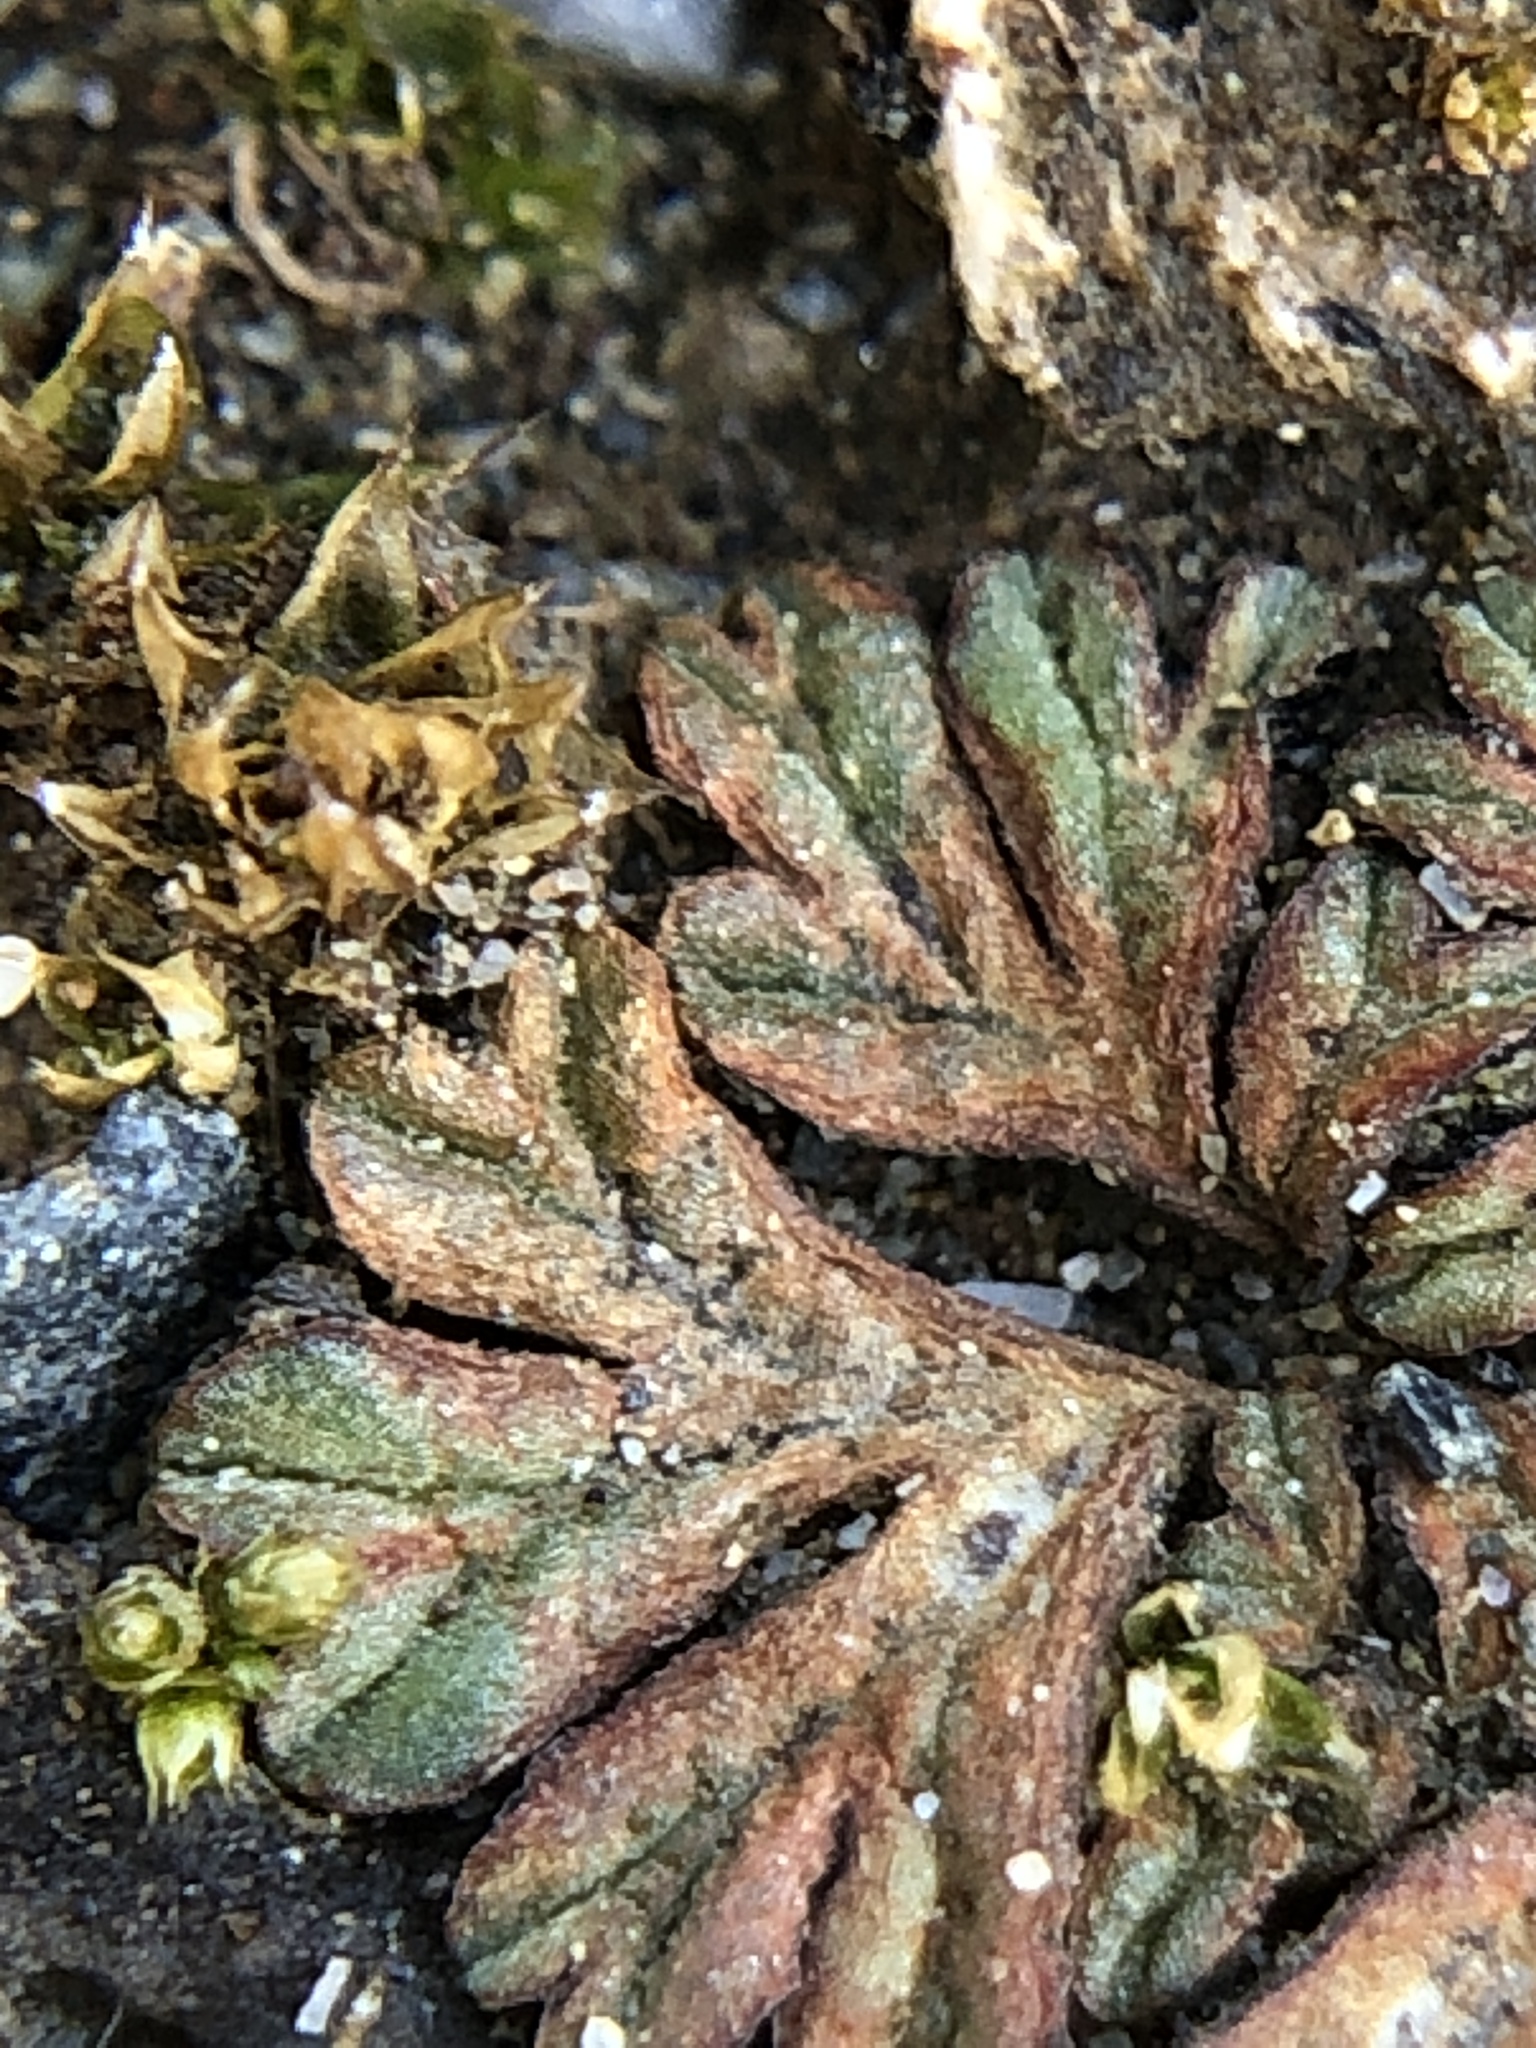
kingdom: Plantae
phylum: Marchantiophyta
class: Marchantiopsida
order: Marchantiales
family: Ricciaceae
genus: Riccia
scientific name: Riccia nigrella
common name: Black crystalwort
